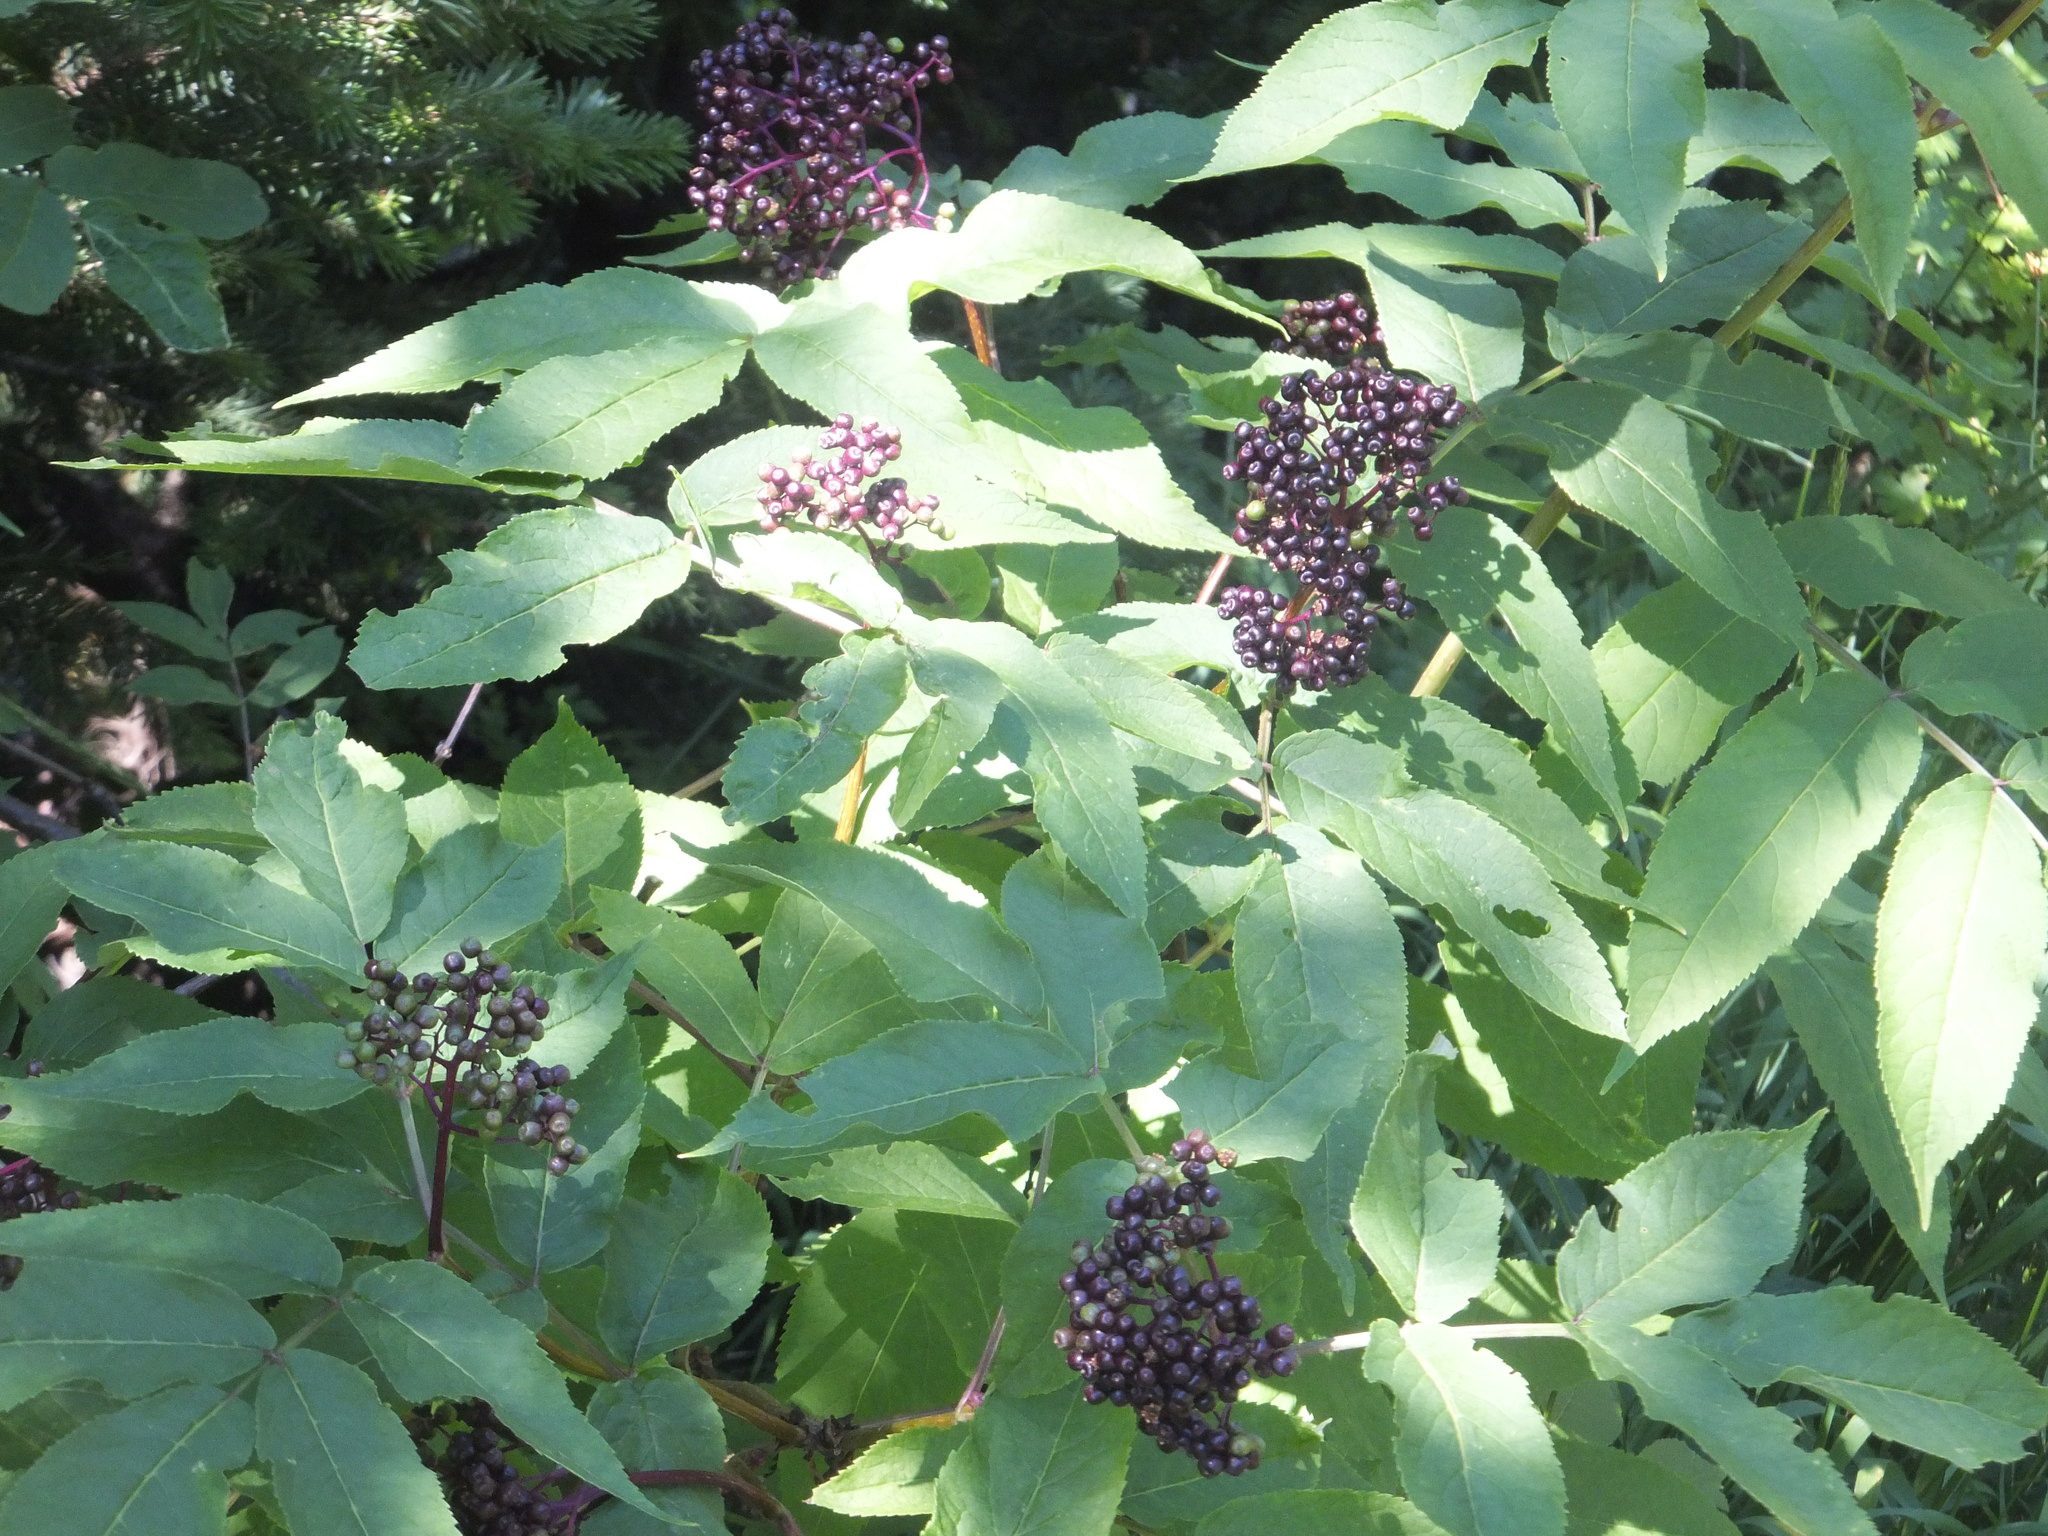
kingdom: Plantae
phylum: Tracheophyta
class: Magnoliopsida
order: Dipsacales
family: Viburnaceae
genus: Sambucus
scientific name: Sambucus racemosa
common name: Red-berried elder
